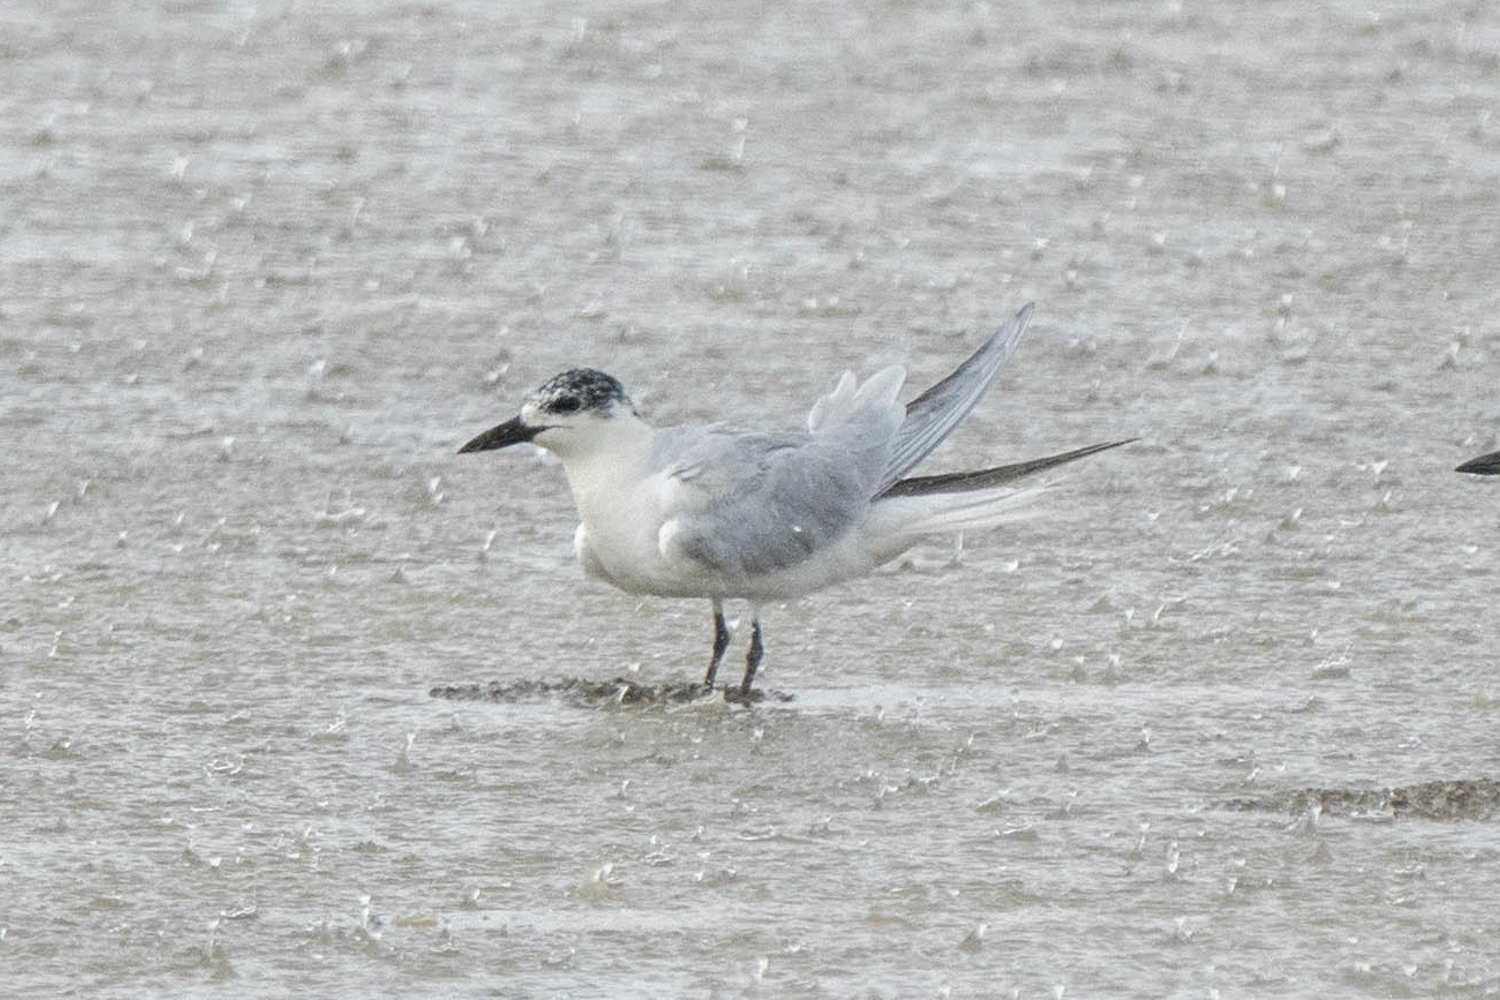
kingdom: Animalia
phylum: Chordata
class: Aves
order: Charadriiformes
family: Laridae
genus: Gelochelidon
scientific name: Gelochelidon nilotica
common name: Gull-billed tern
